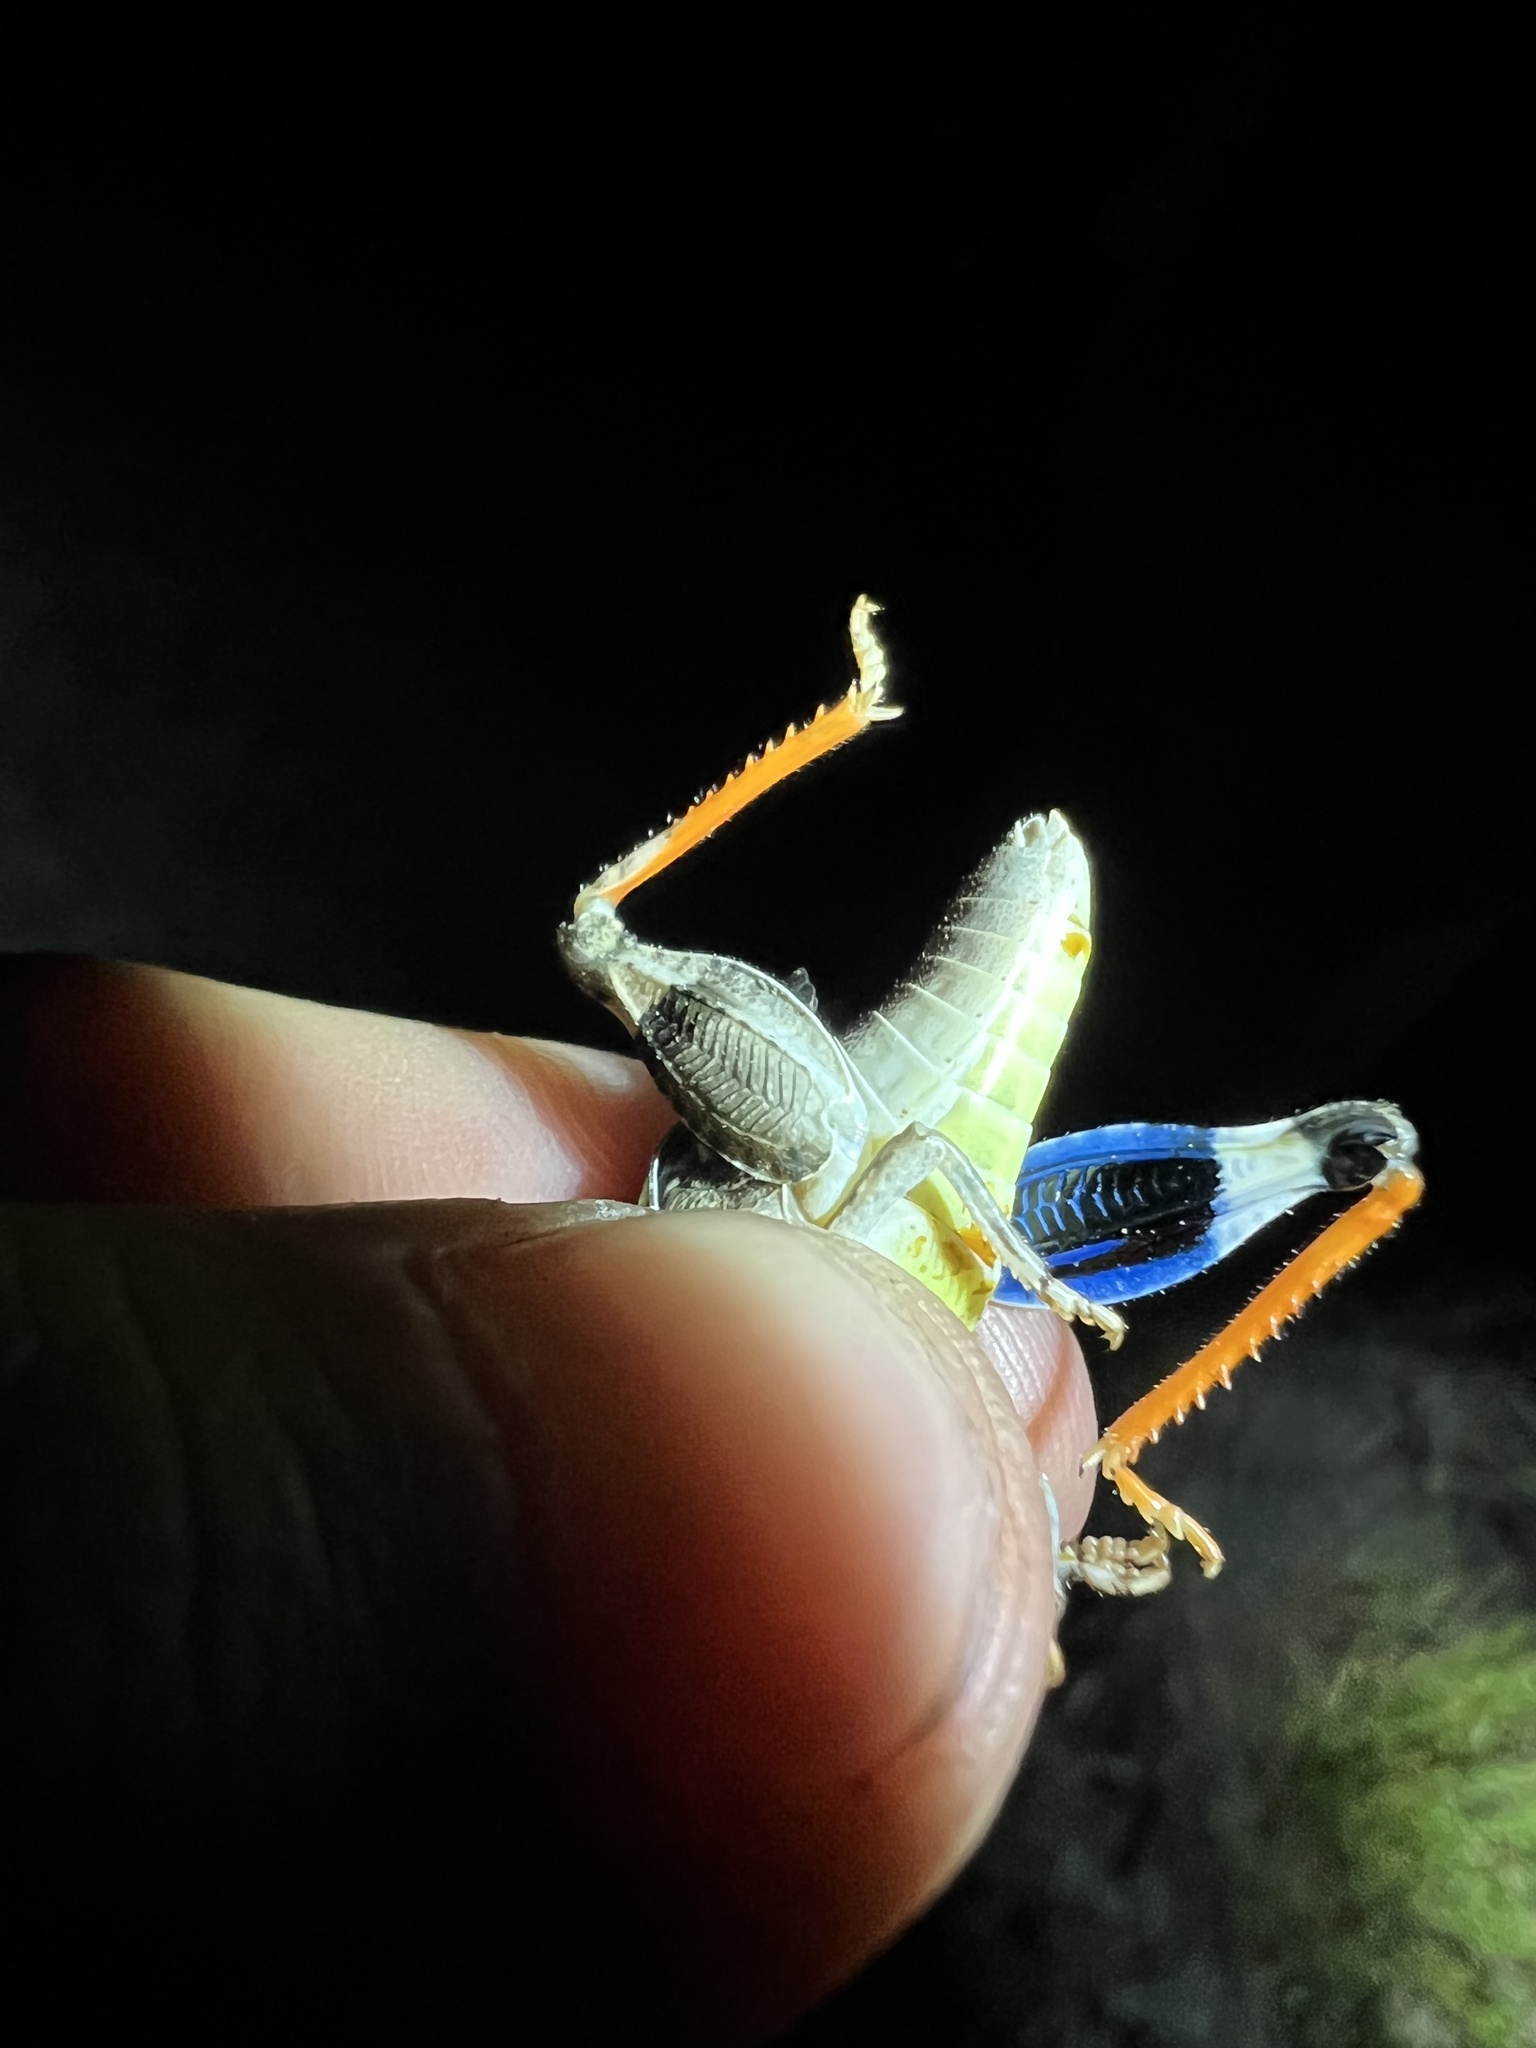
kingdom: Animalia
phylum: Arthropoda
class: Insecta
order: Orthoptera
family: Acrididae
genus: Hadrotettix
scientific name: Hadrotettix trifasciatus
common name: Threebanded grasshopper
